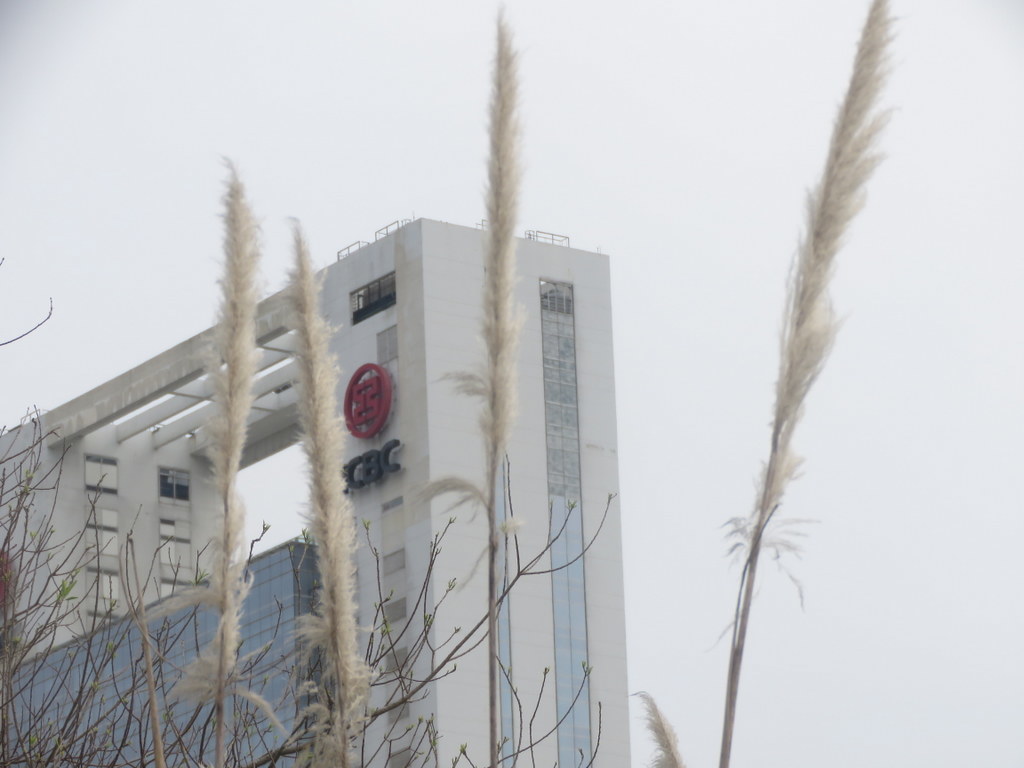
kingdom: Plantae
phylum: Tracheophyta
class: Liliopsida
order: Poales
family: Poaceae
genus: Cortaderia
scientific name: Cortaderia selloana
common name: Uruguayan pampas grass
